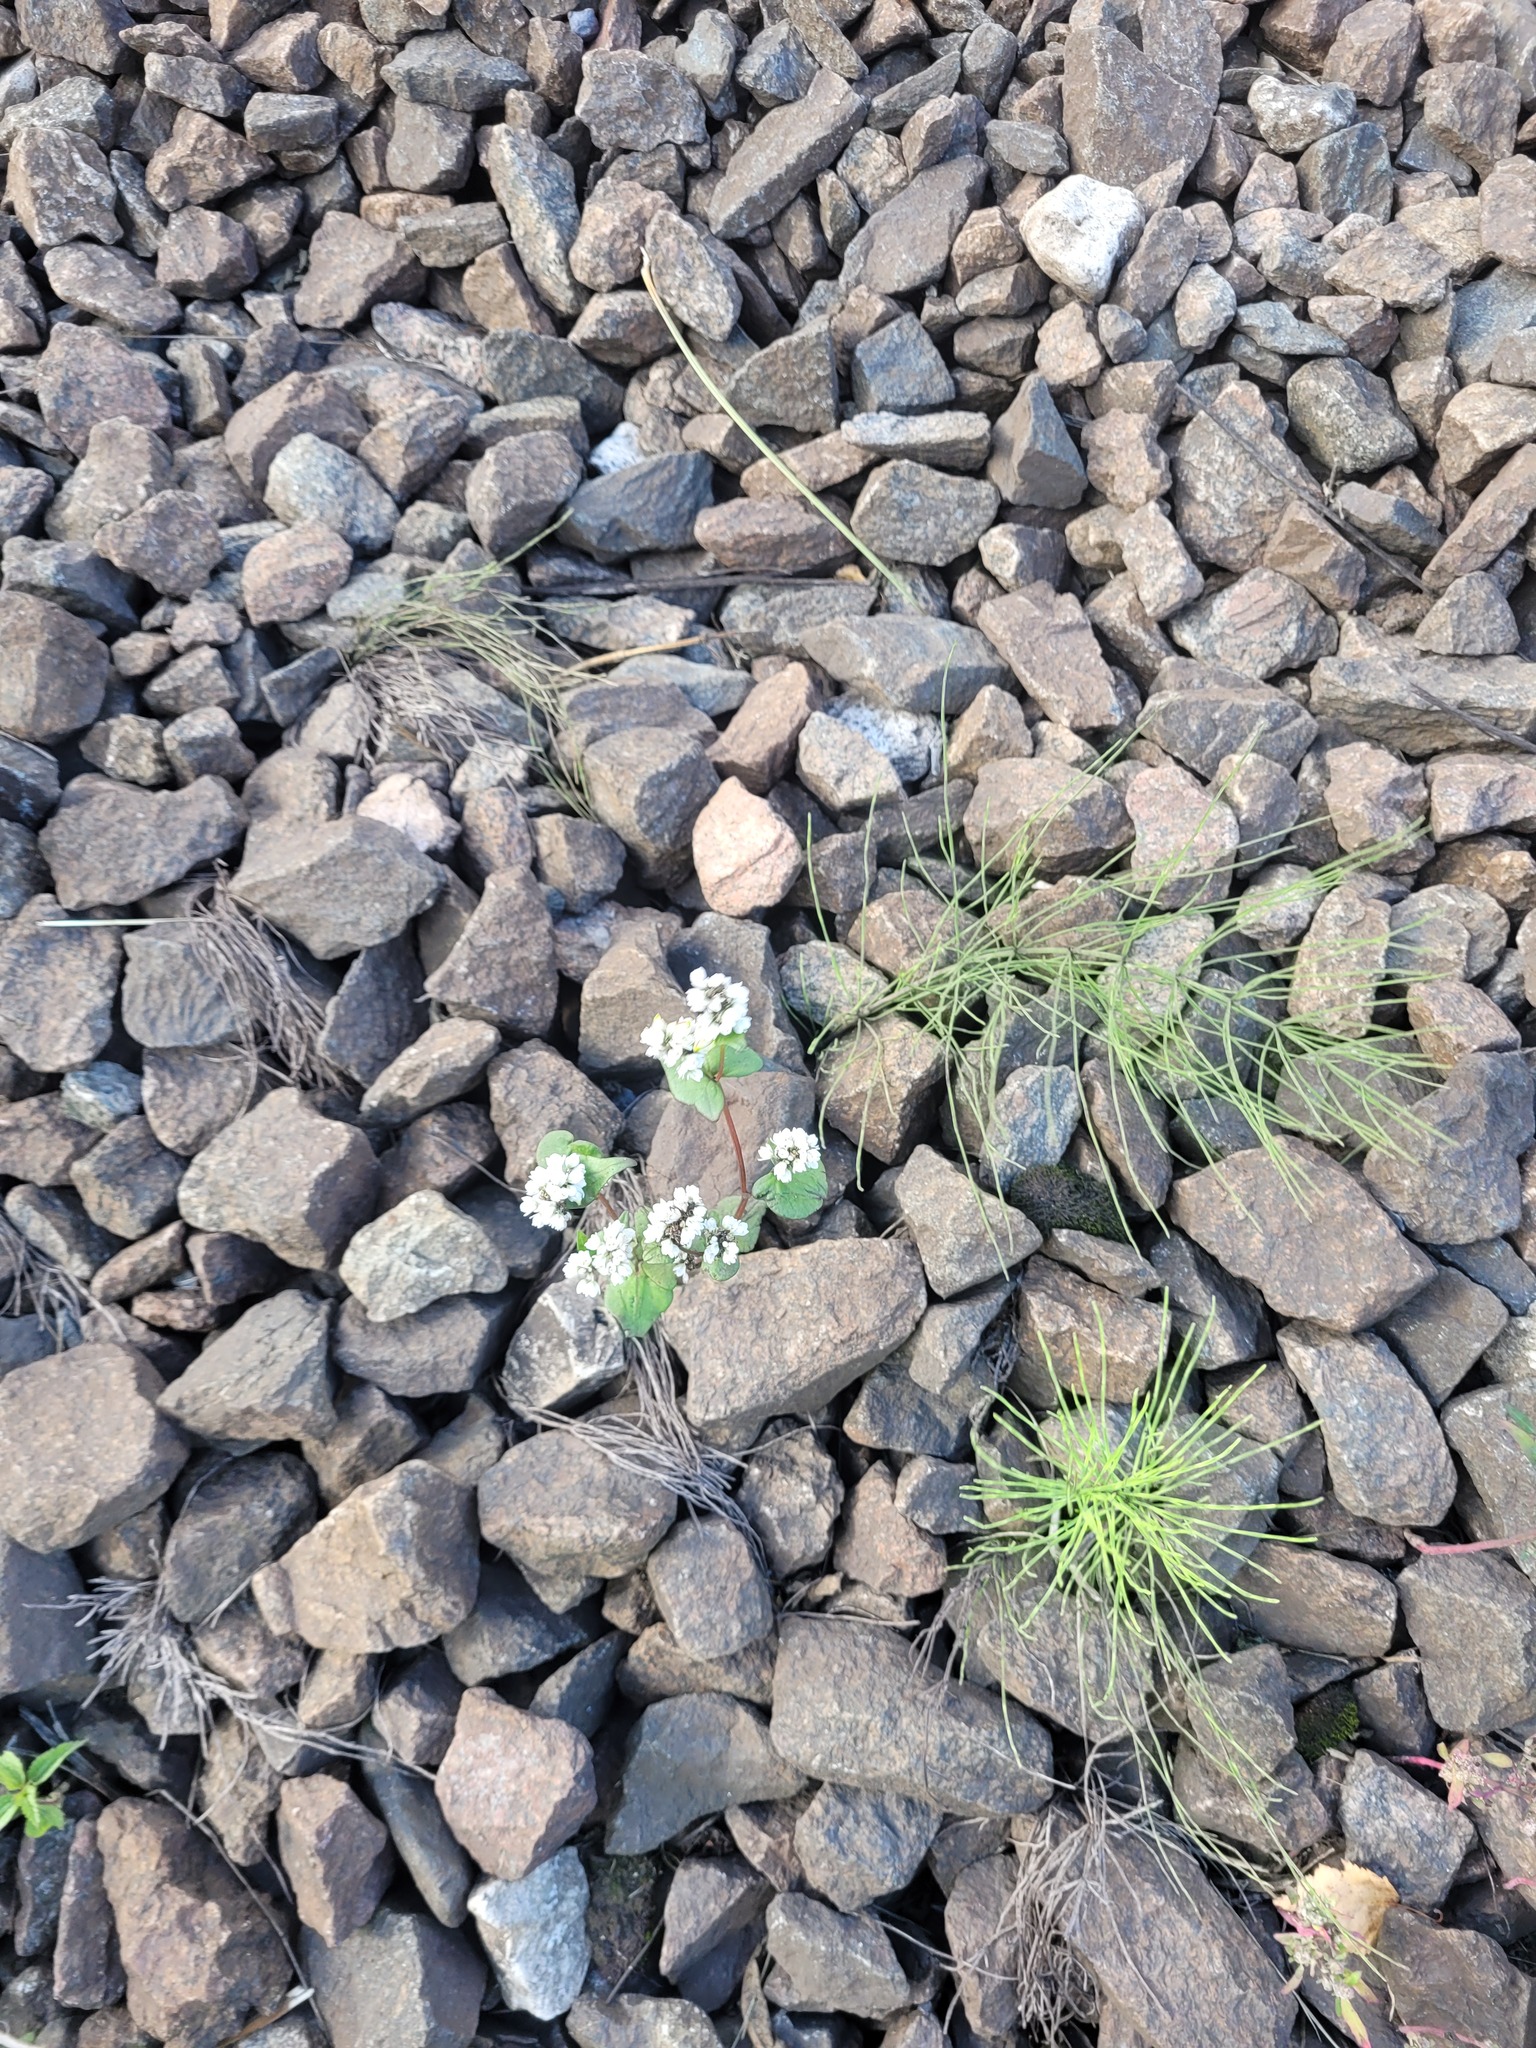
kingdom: Plantae
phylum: Tracheophyta
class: Magnoliopsida
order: Caryophyllales
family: Polygonaceae
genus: Fagopyrum
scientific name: Fagopyrum esculentum
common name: Buckwheat
